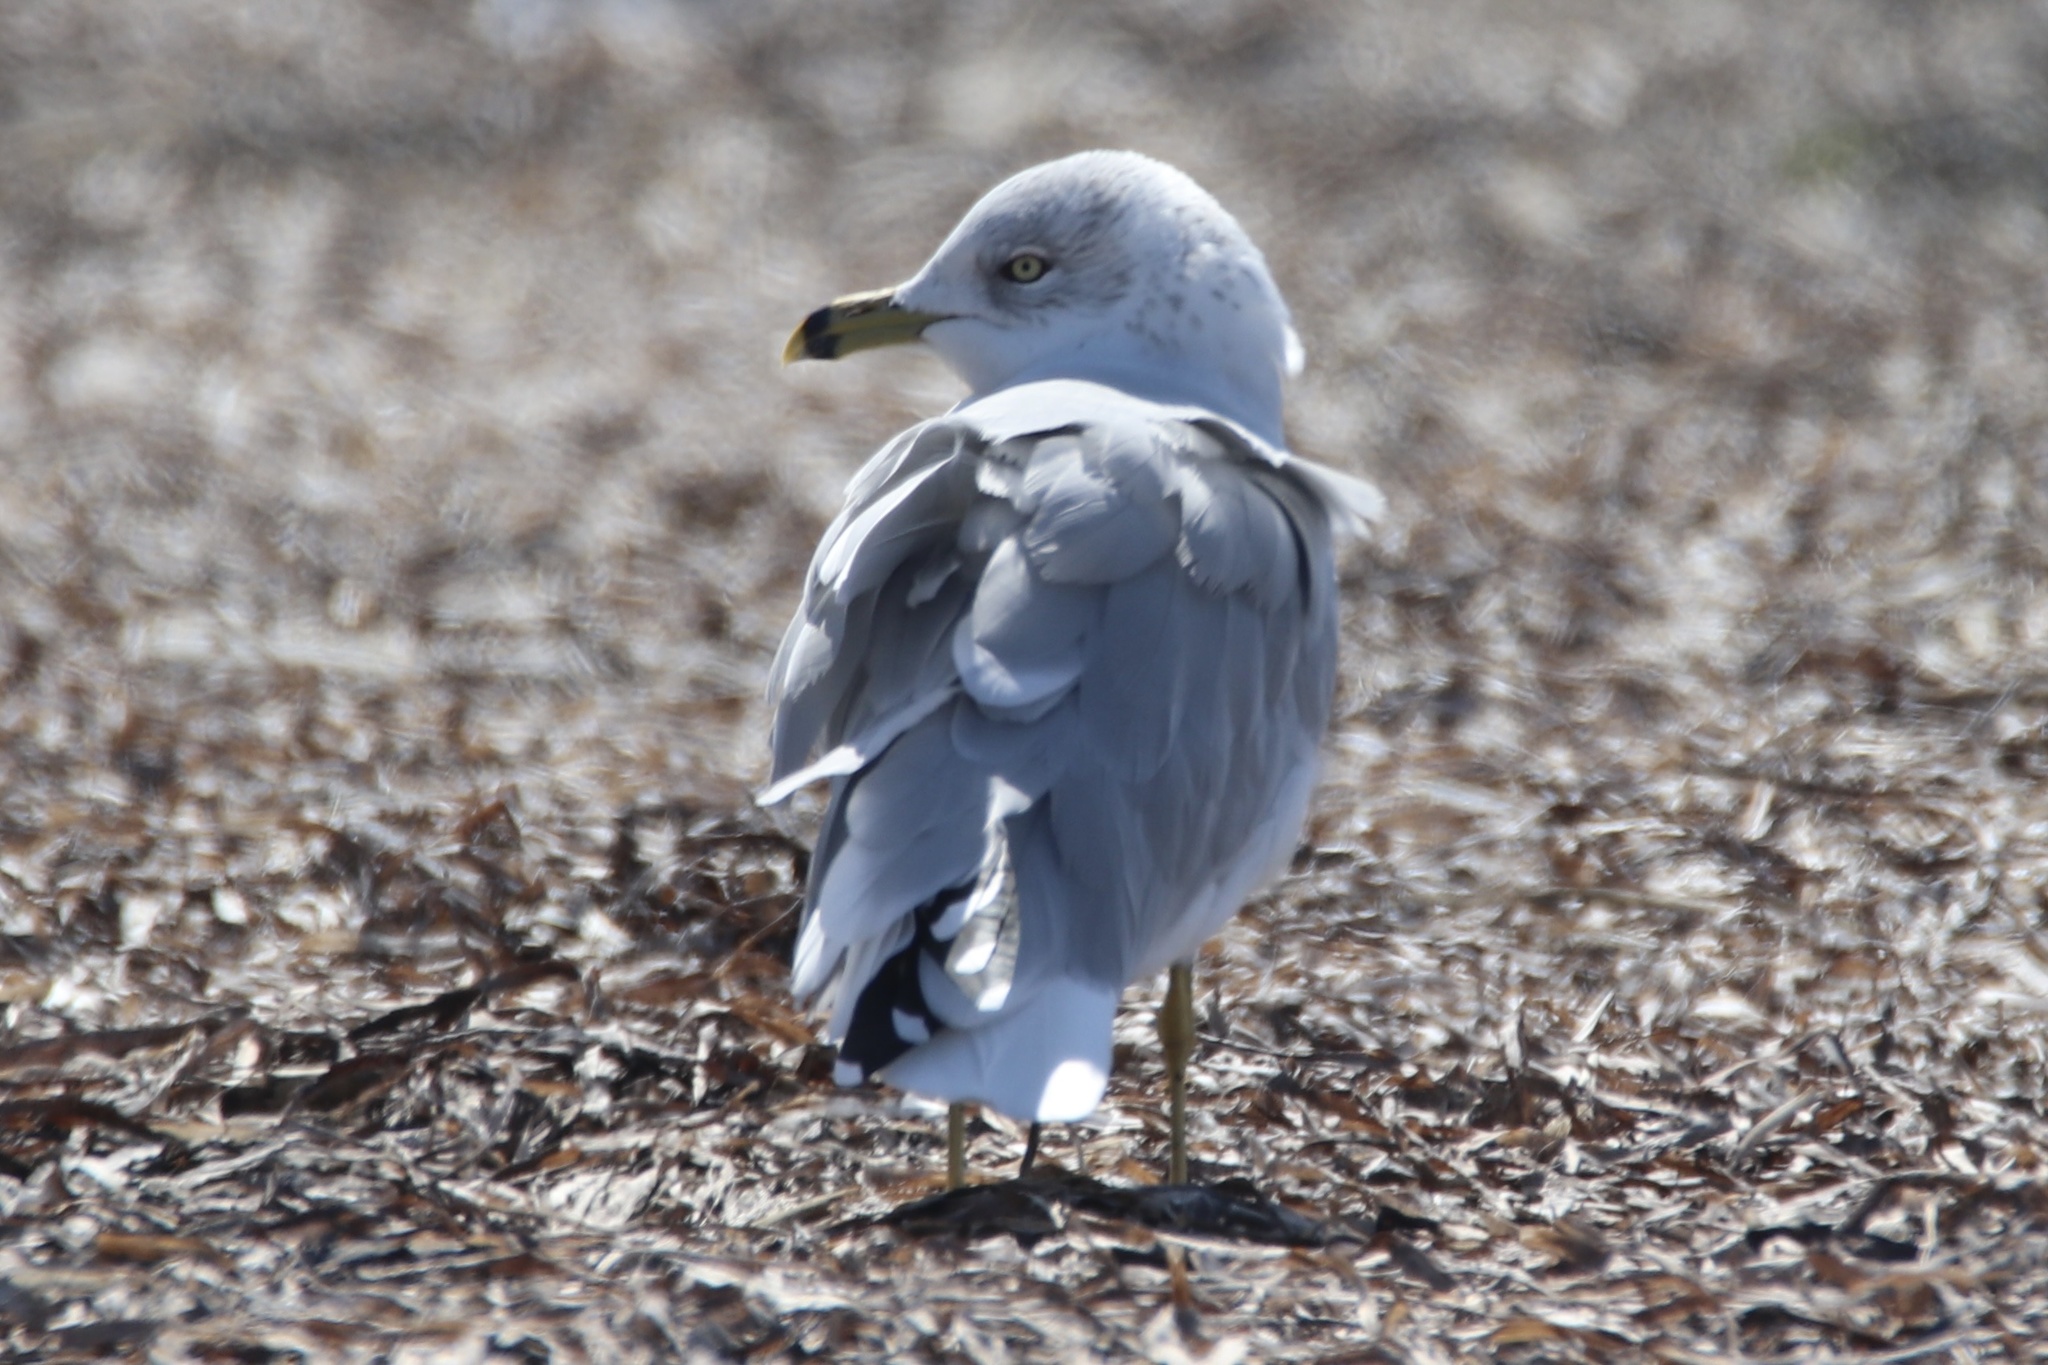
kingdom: Animalia
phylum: Chordata
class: Aves
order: Charadriiformes
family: Laridae
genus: Larus
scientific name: Larus delawarensis
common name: Ring-billed gull
